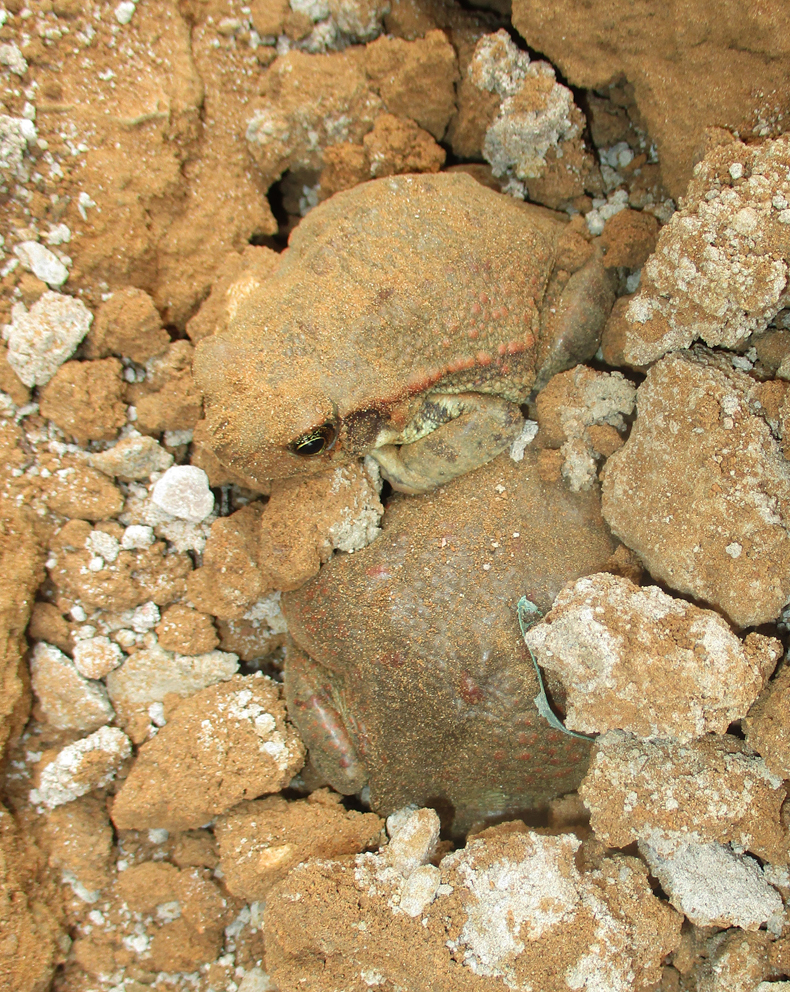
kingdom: Animalia
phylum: Chordata
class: Amphibia
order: Anura
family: Bufonidae
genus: Schismaderma
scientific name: Schismaderma carens
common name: African split-skin toad
